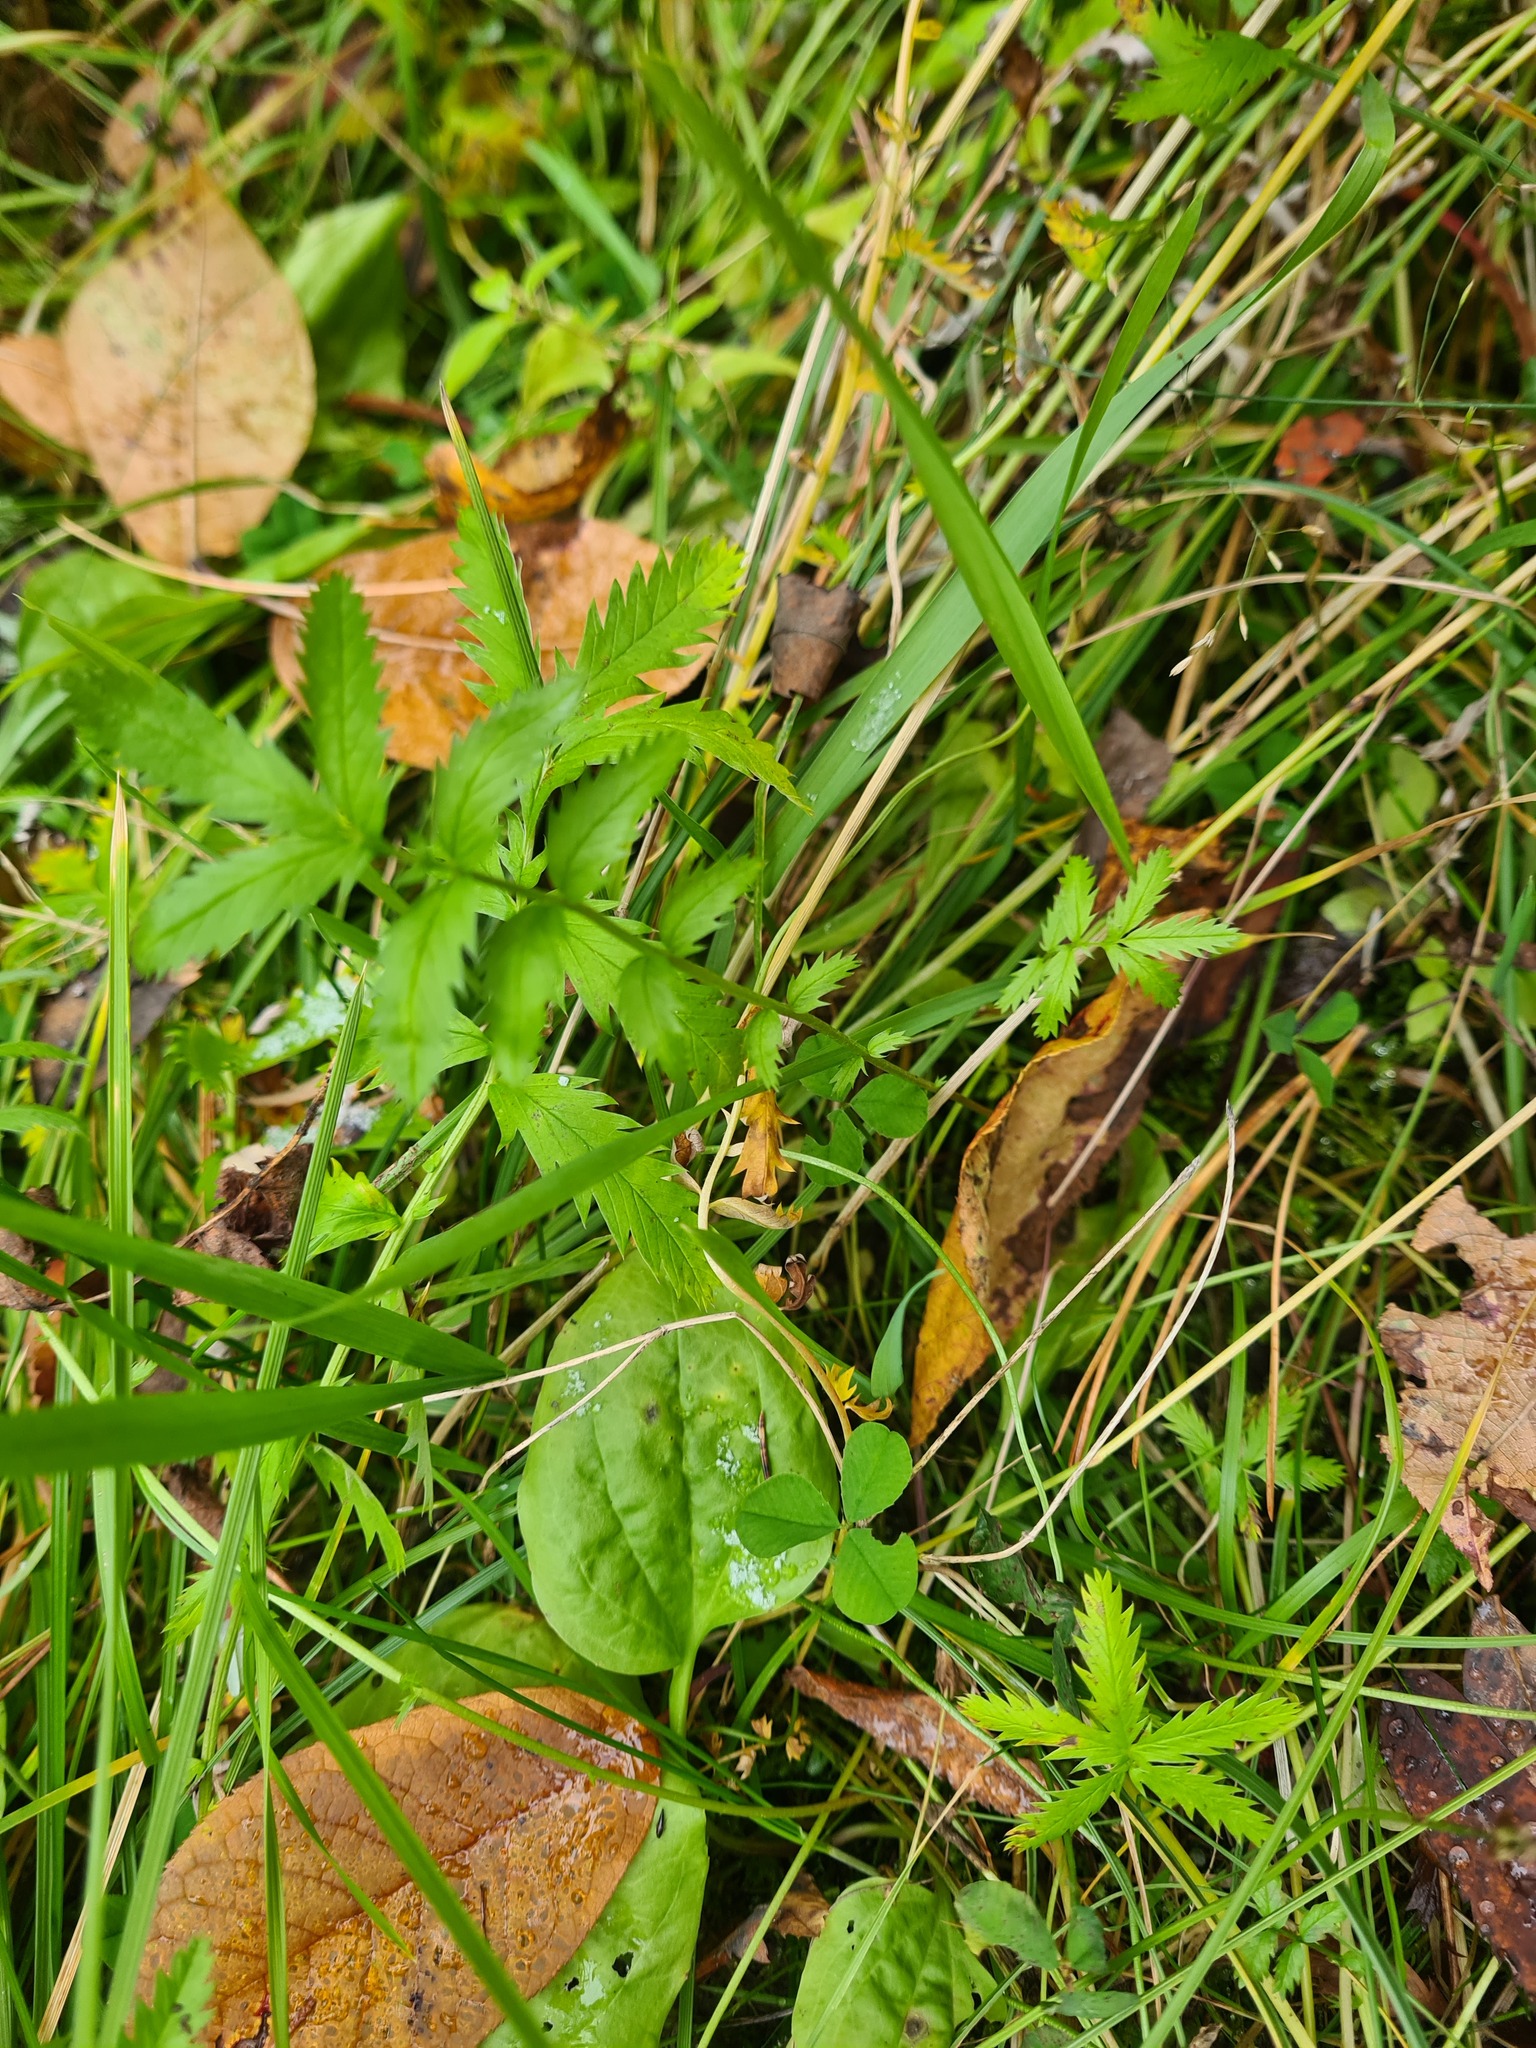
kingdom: Plantae
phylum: Tracheophyta
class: Magnoliopsida
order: Rosales
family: Rosaceae
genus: Argentina
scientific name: Argentina anserina
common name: Common silverweed
